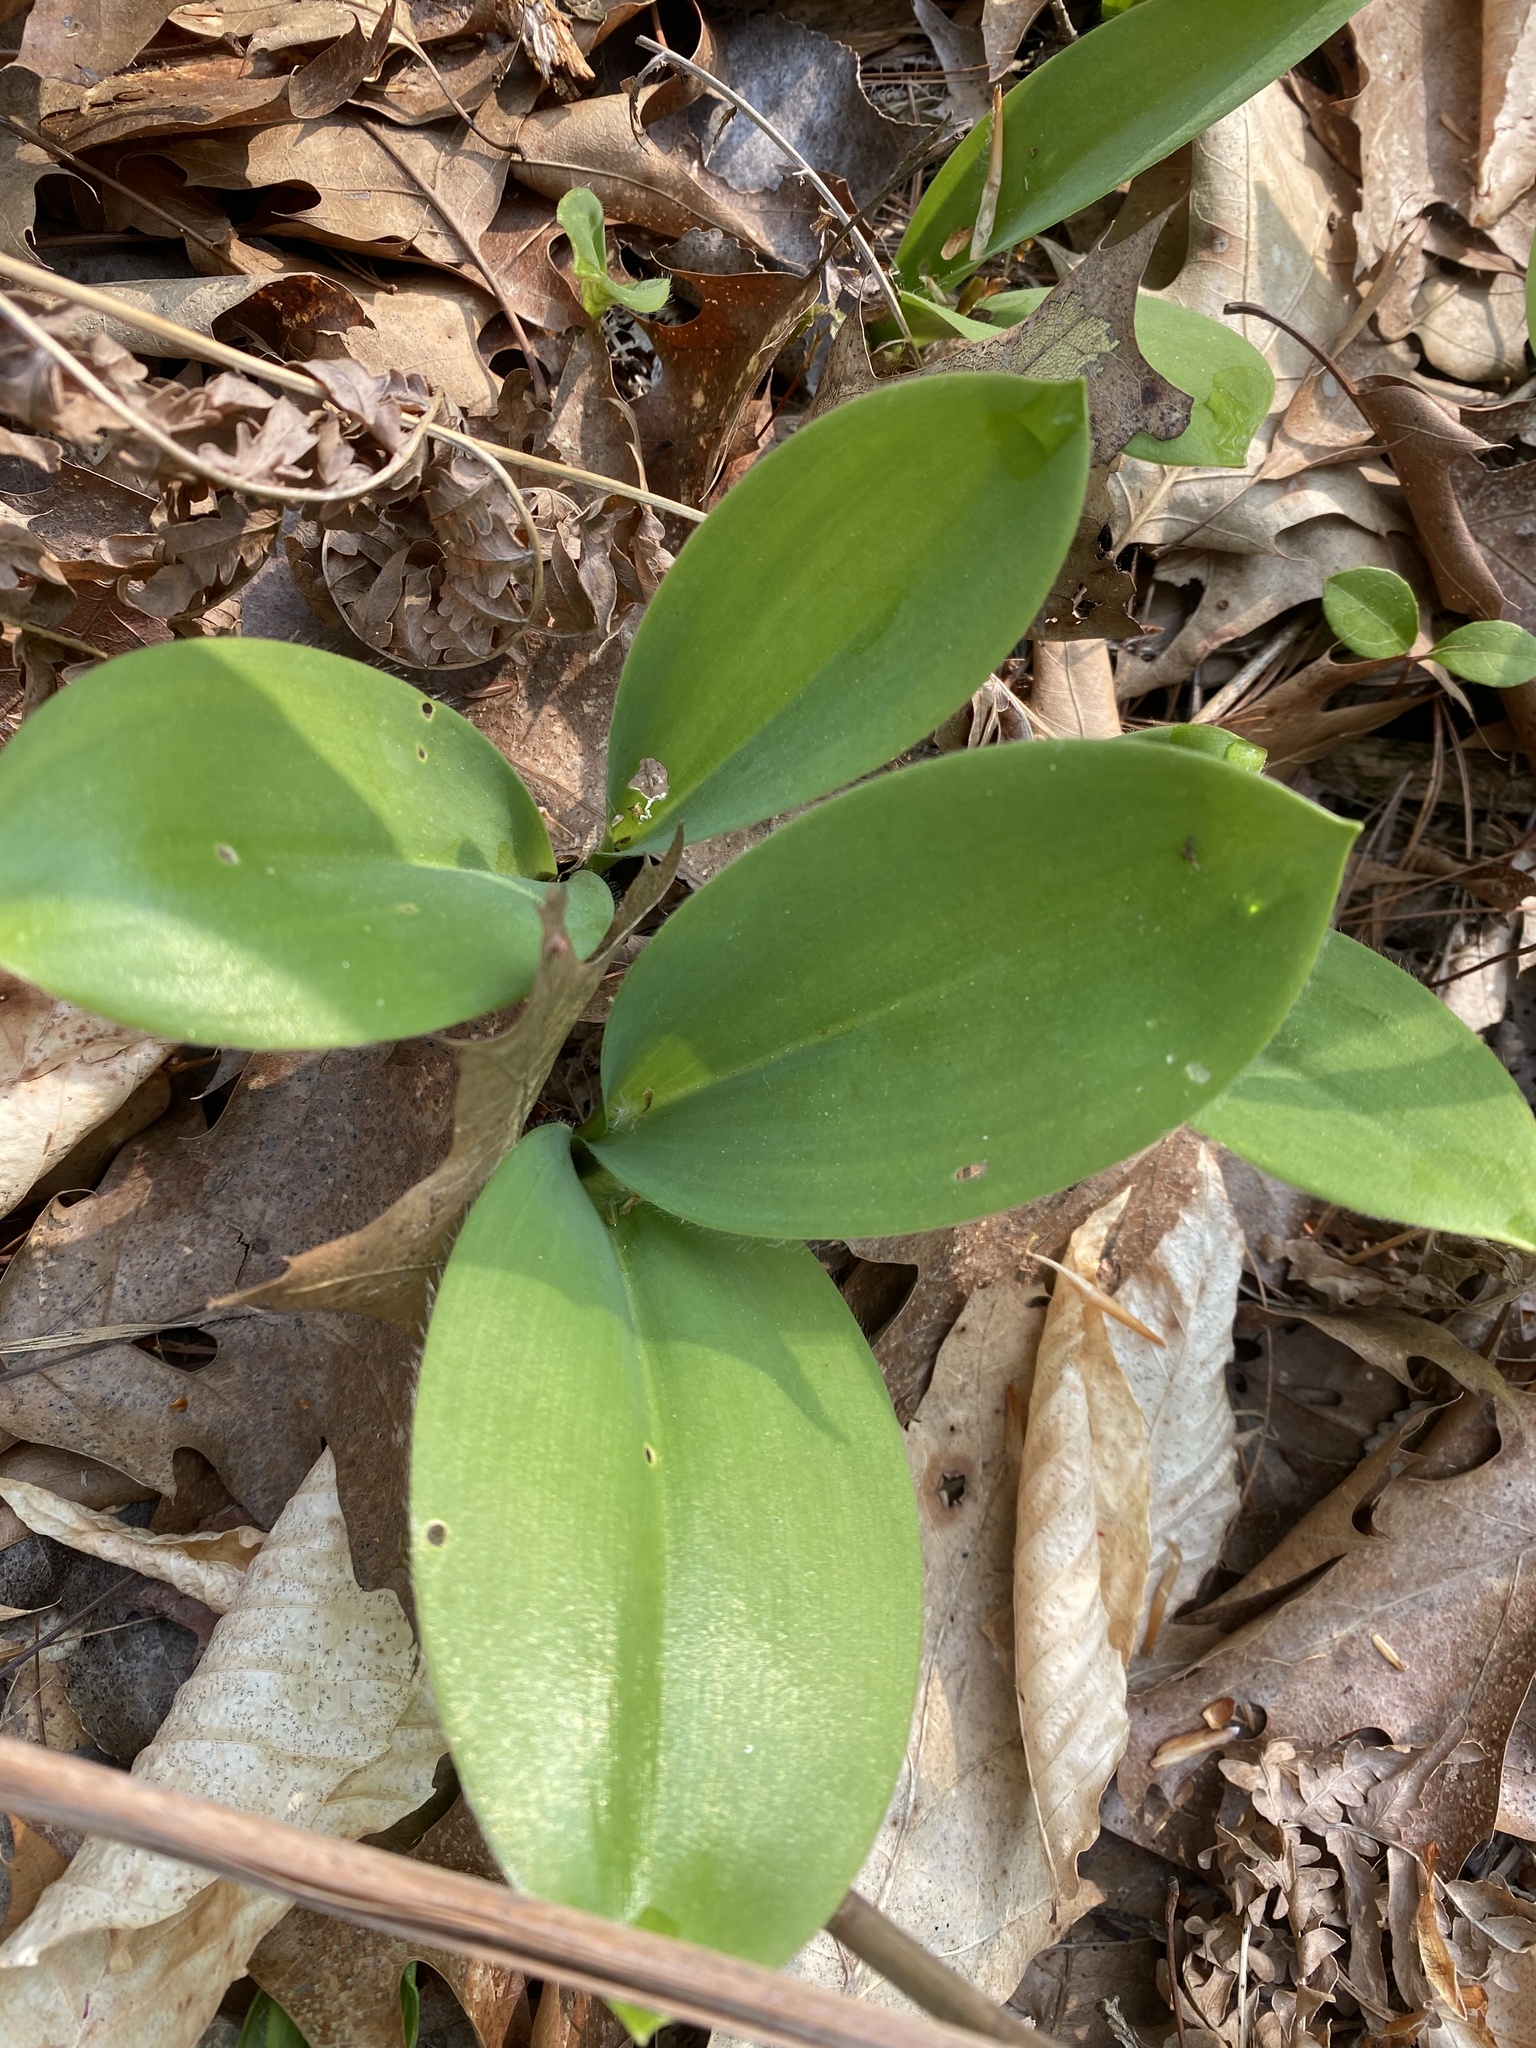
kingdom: Plantae
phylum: Tracheophyta
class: Liliopsida
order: Liliales
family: Liliaceae
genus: Clintonia
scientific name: Clintonia borealis
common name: Yellow clintonia
